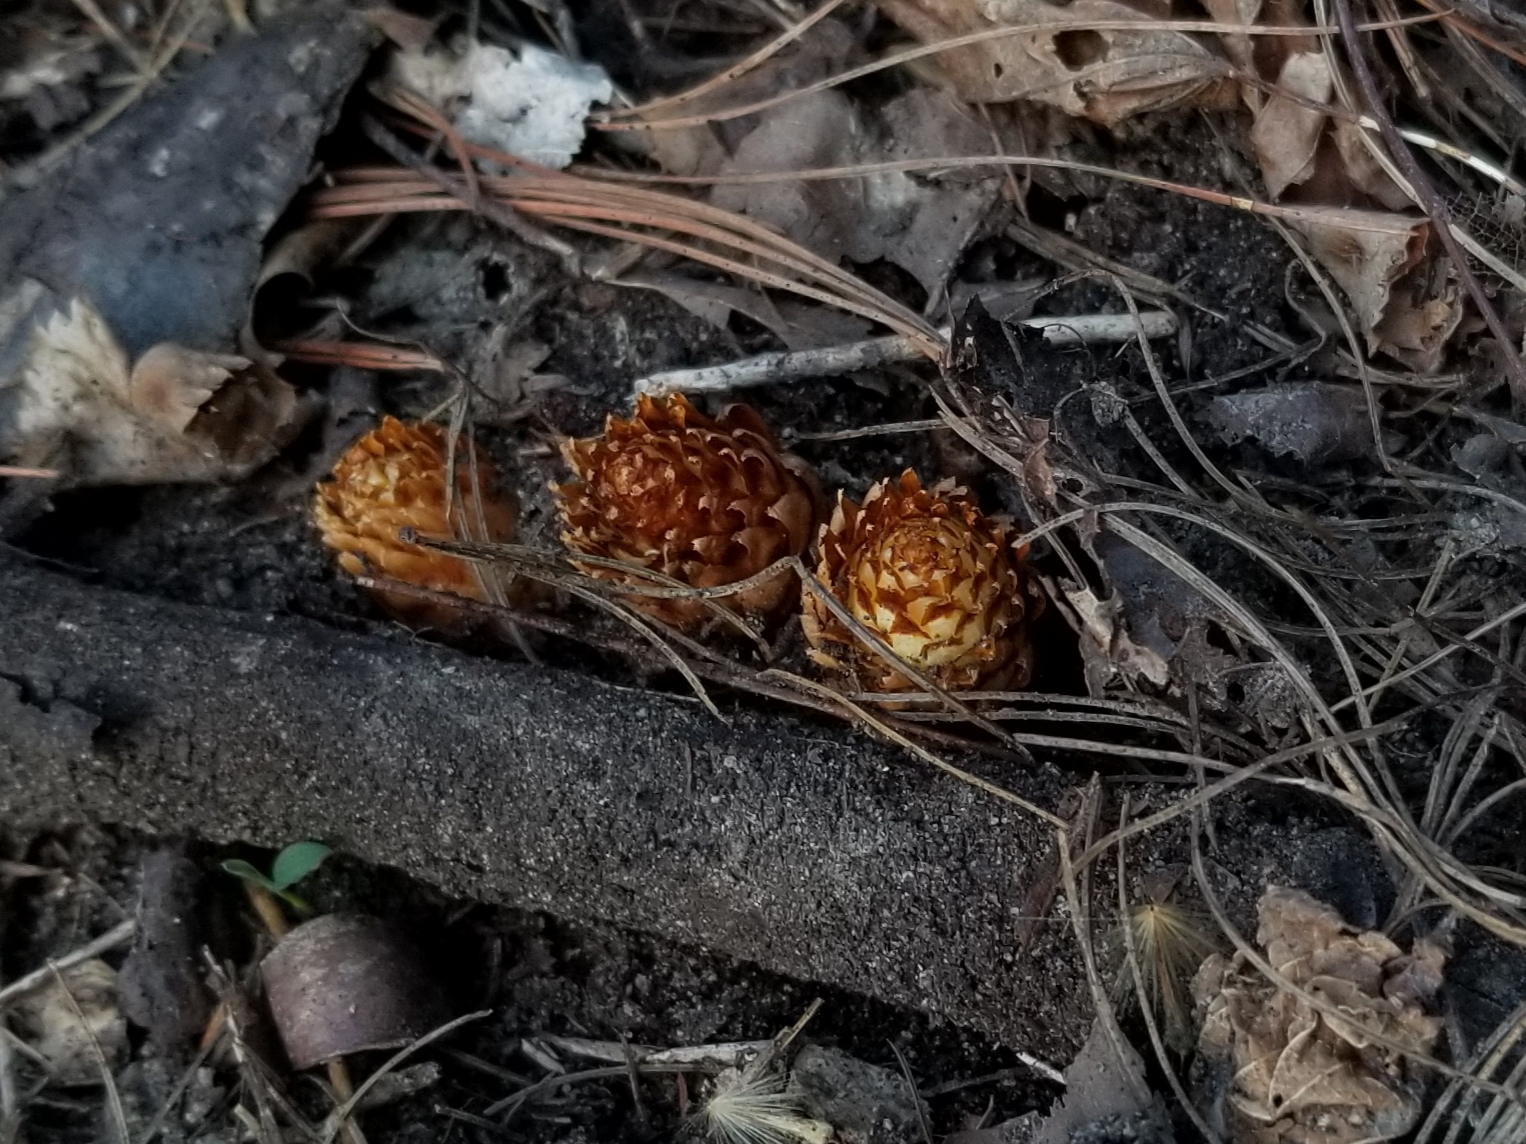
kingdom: Plantae
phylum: Tracheophyta
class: Magnoliopsida
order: Lamiales
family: Orobanchaceae
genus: Conopholis
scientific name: Conopholis americana
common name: American cancer-root
